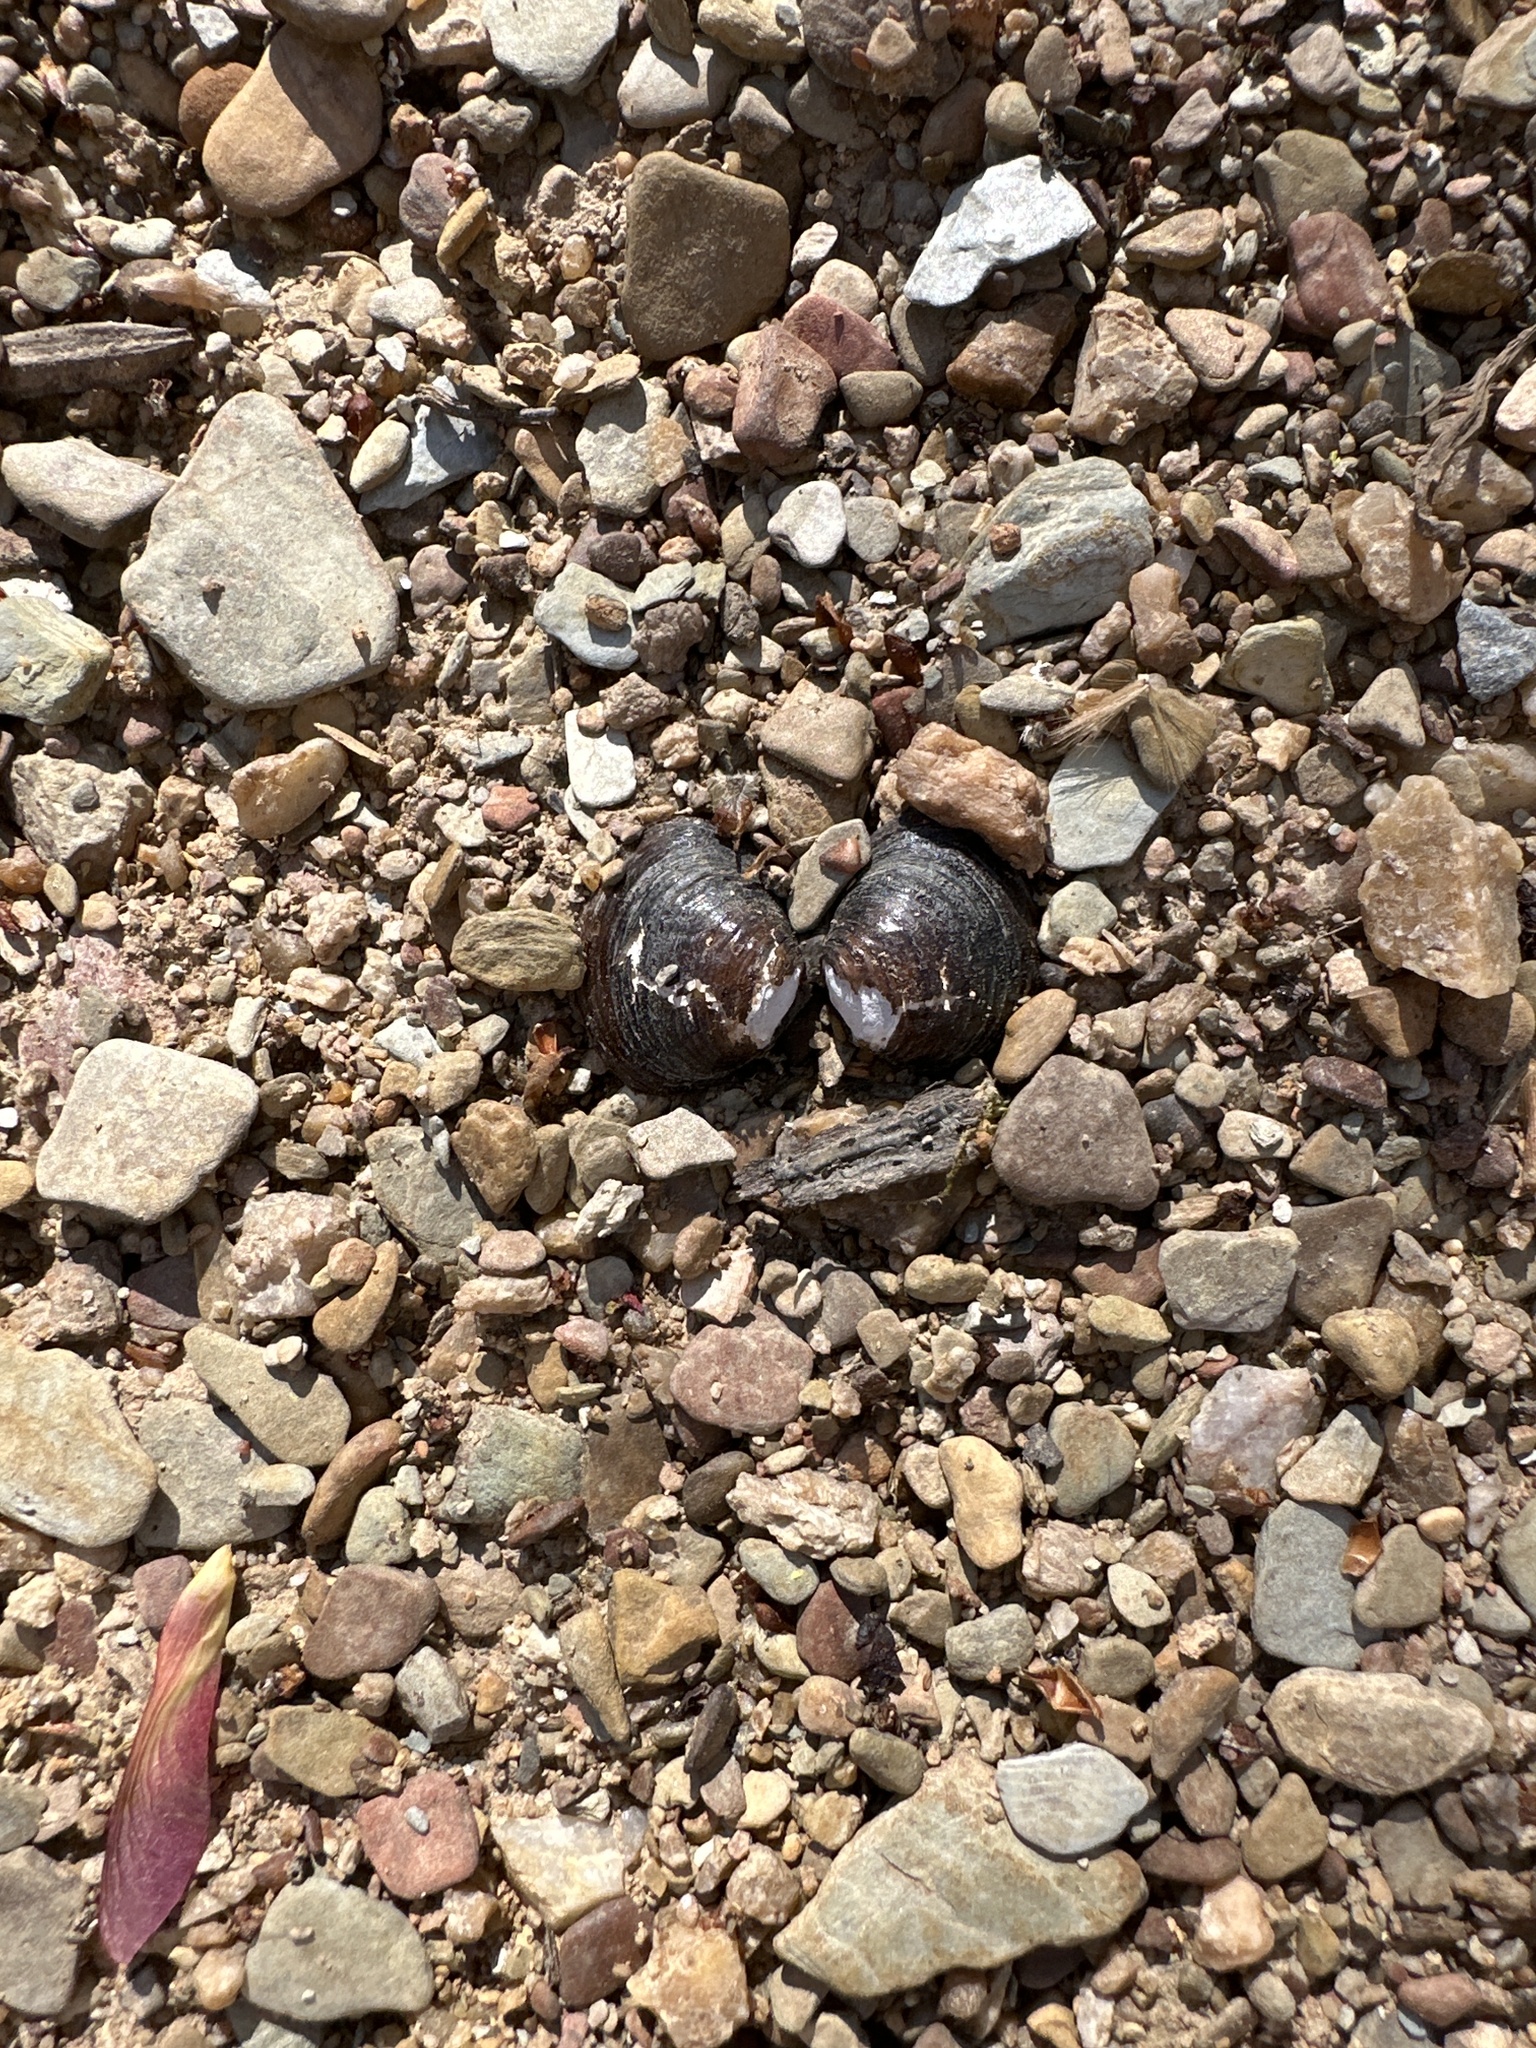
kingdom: Animalia
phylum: Mollusca
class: Bivalvia
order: Venerida
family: Cyrenidae
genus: Corbicula
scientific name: Corbicula fluminea
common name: Asian clam
